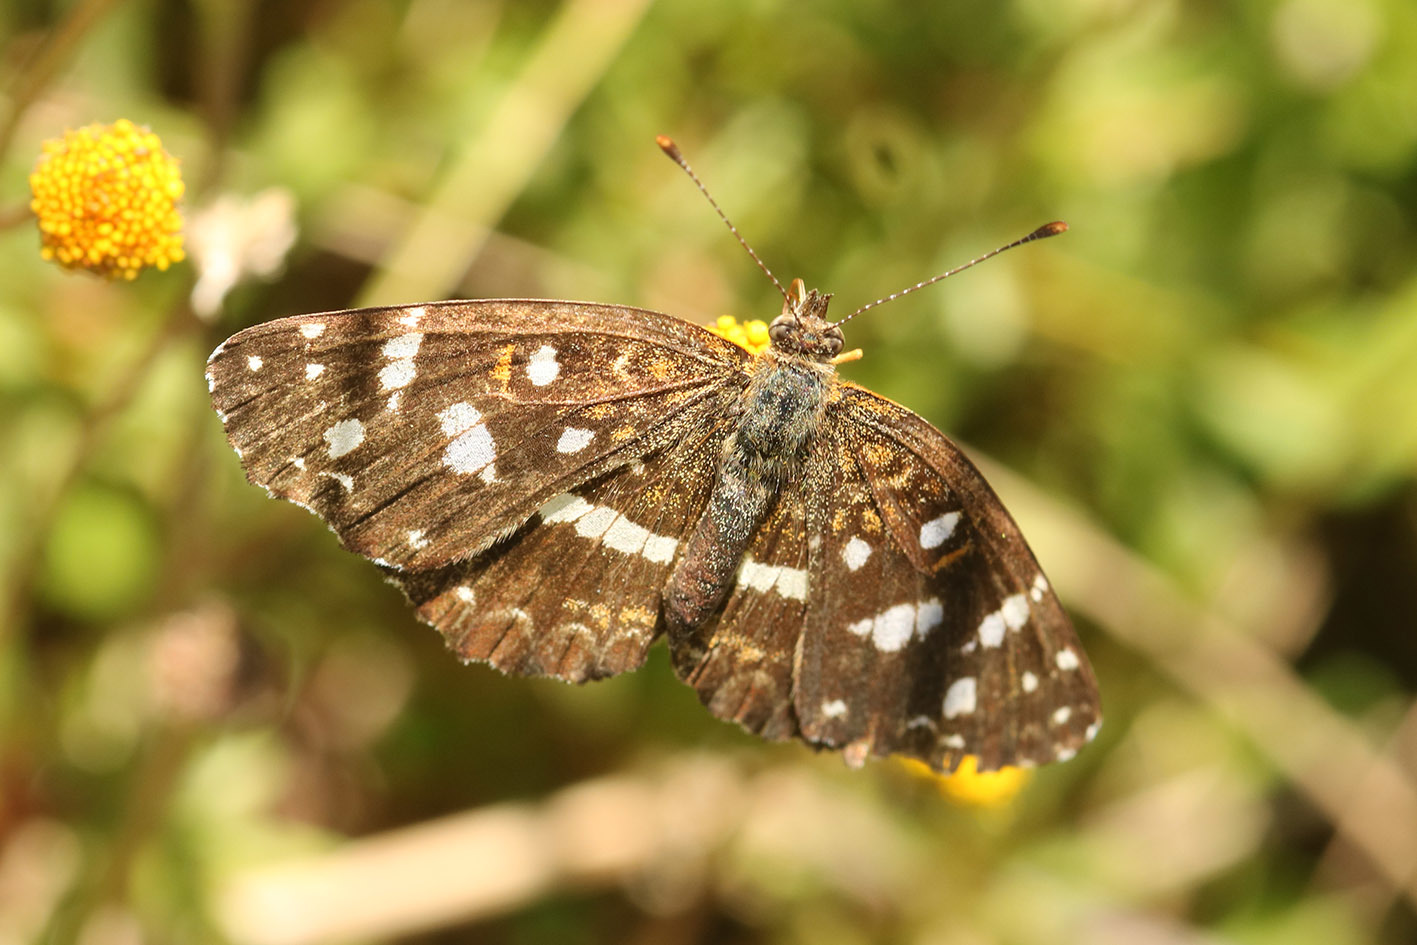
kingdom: Animalia
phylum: Arthropoda
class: Insecta
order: Lepidoptera
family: Nymphalidae
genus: Ortilia
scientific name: Ortilia ithra
